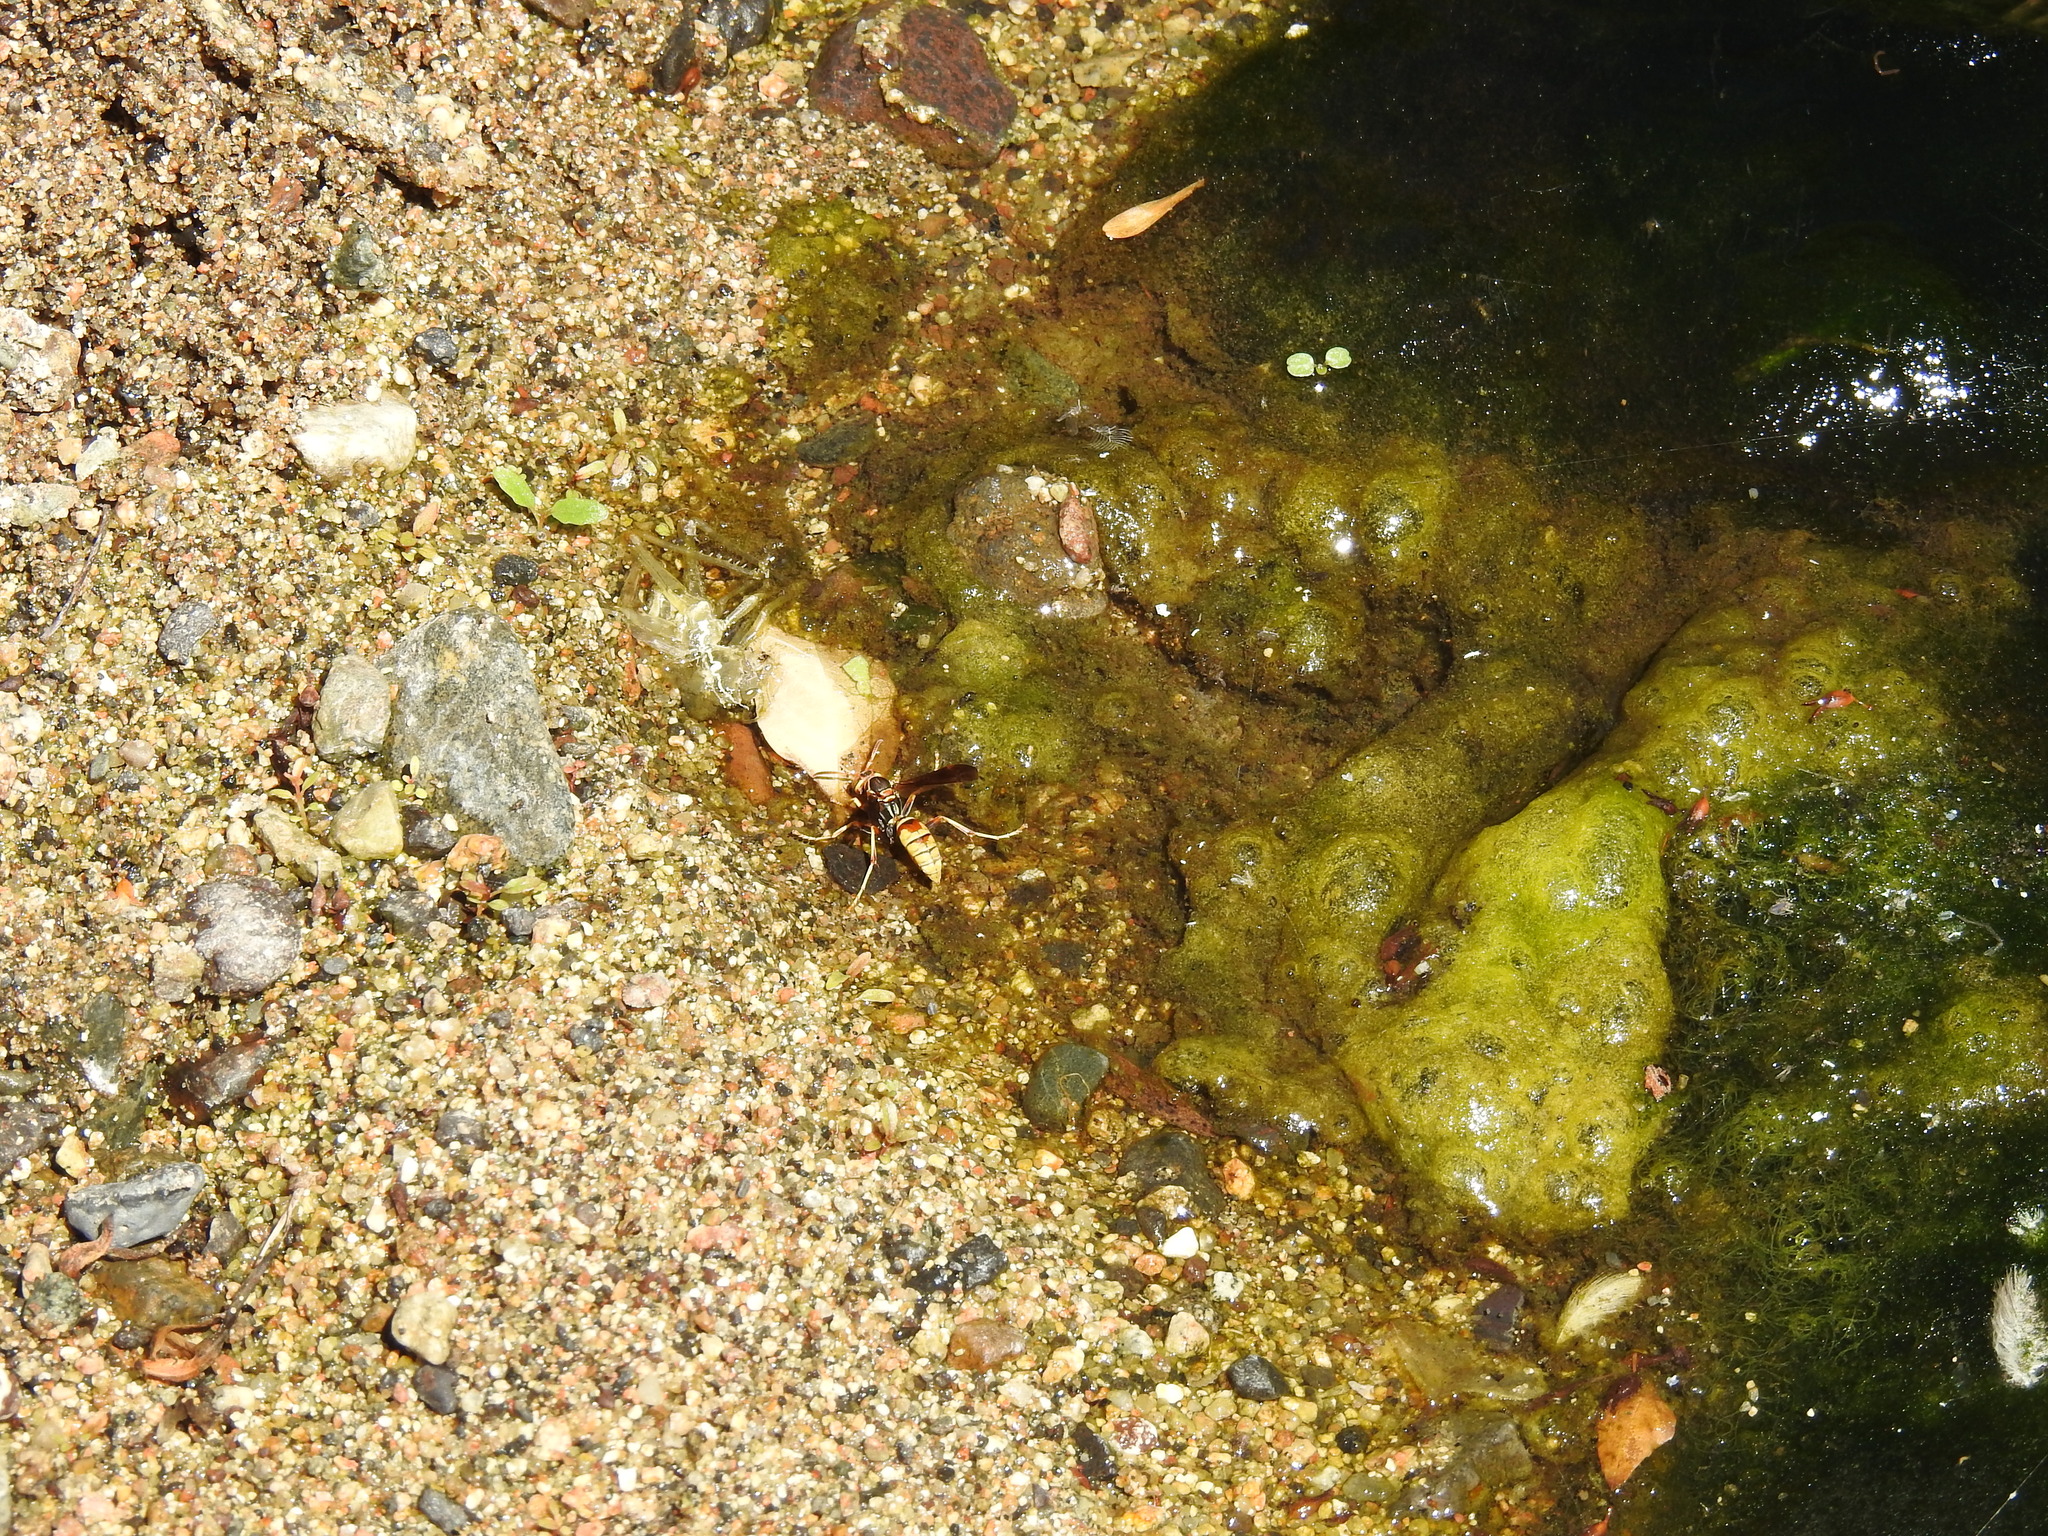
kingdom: Animalia
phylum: Arthropoda
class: Insecta
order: Hymenoptera
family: Eumenidae
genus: Polistes
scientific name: Polistes dorsalis
